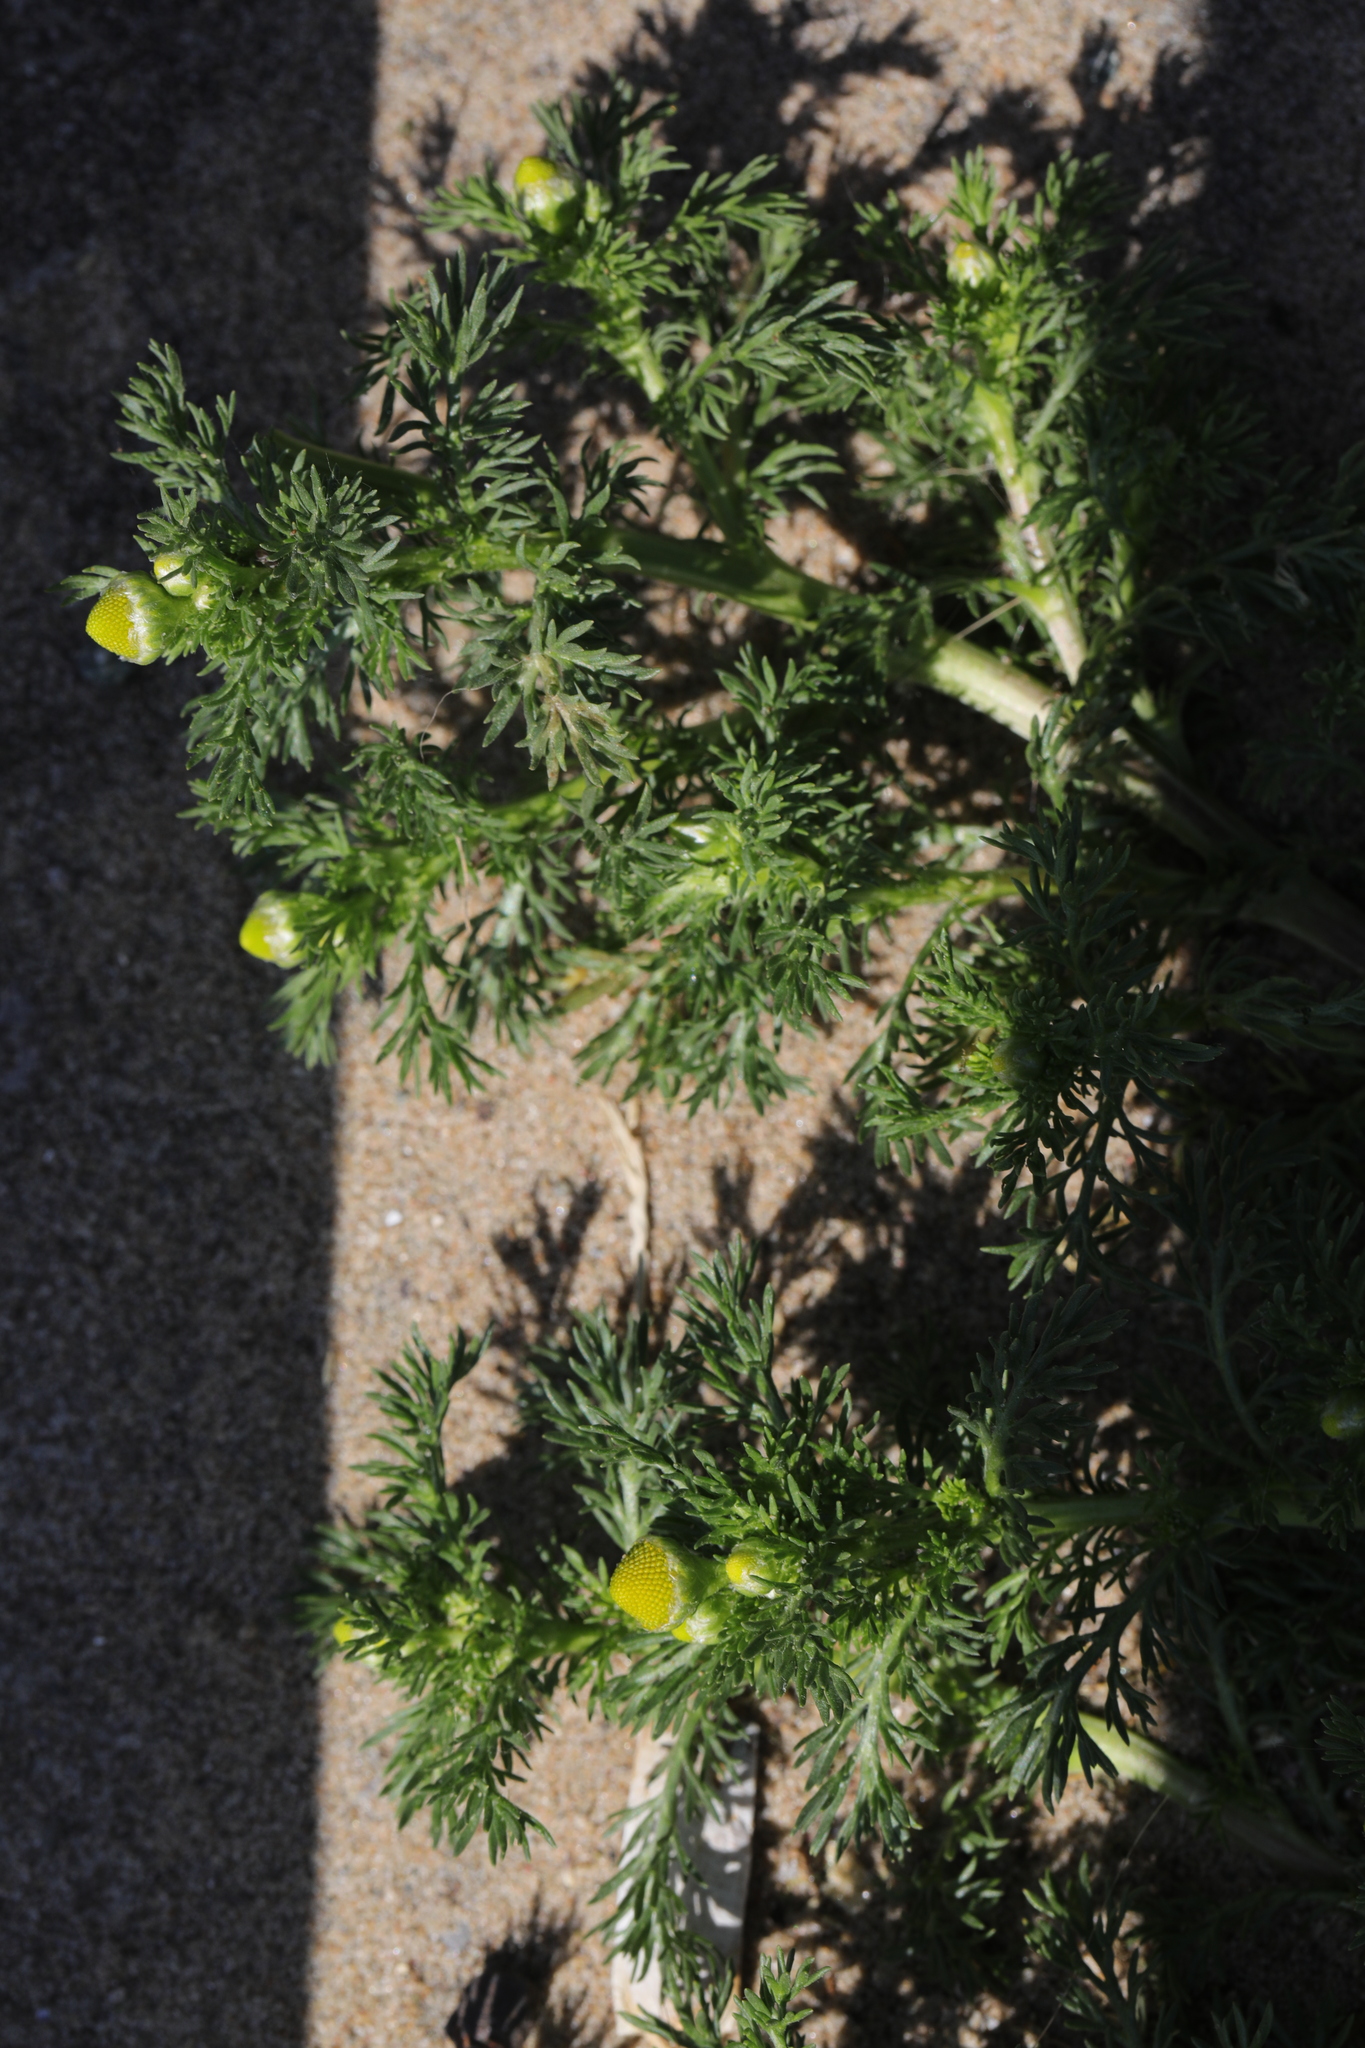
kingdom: Plantae
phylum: Tracheophyta
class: Magnoliopsida
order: Asterales
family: Asteraceae
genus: Matricaria
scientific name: Matricaria discoidea
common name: Disc mayweed
